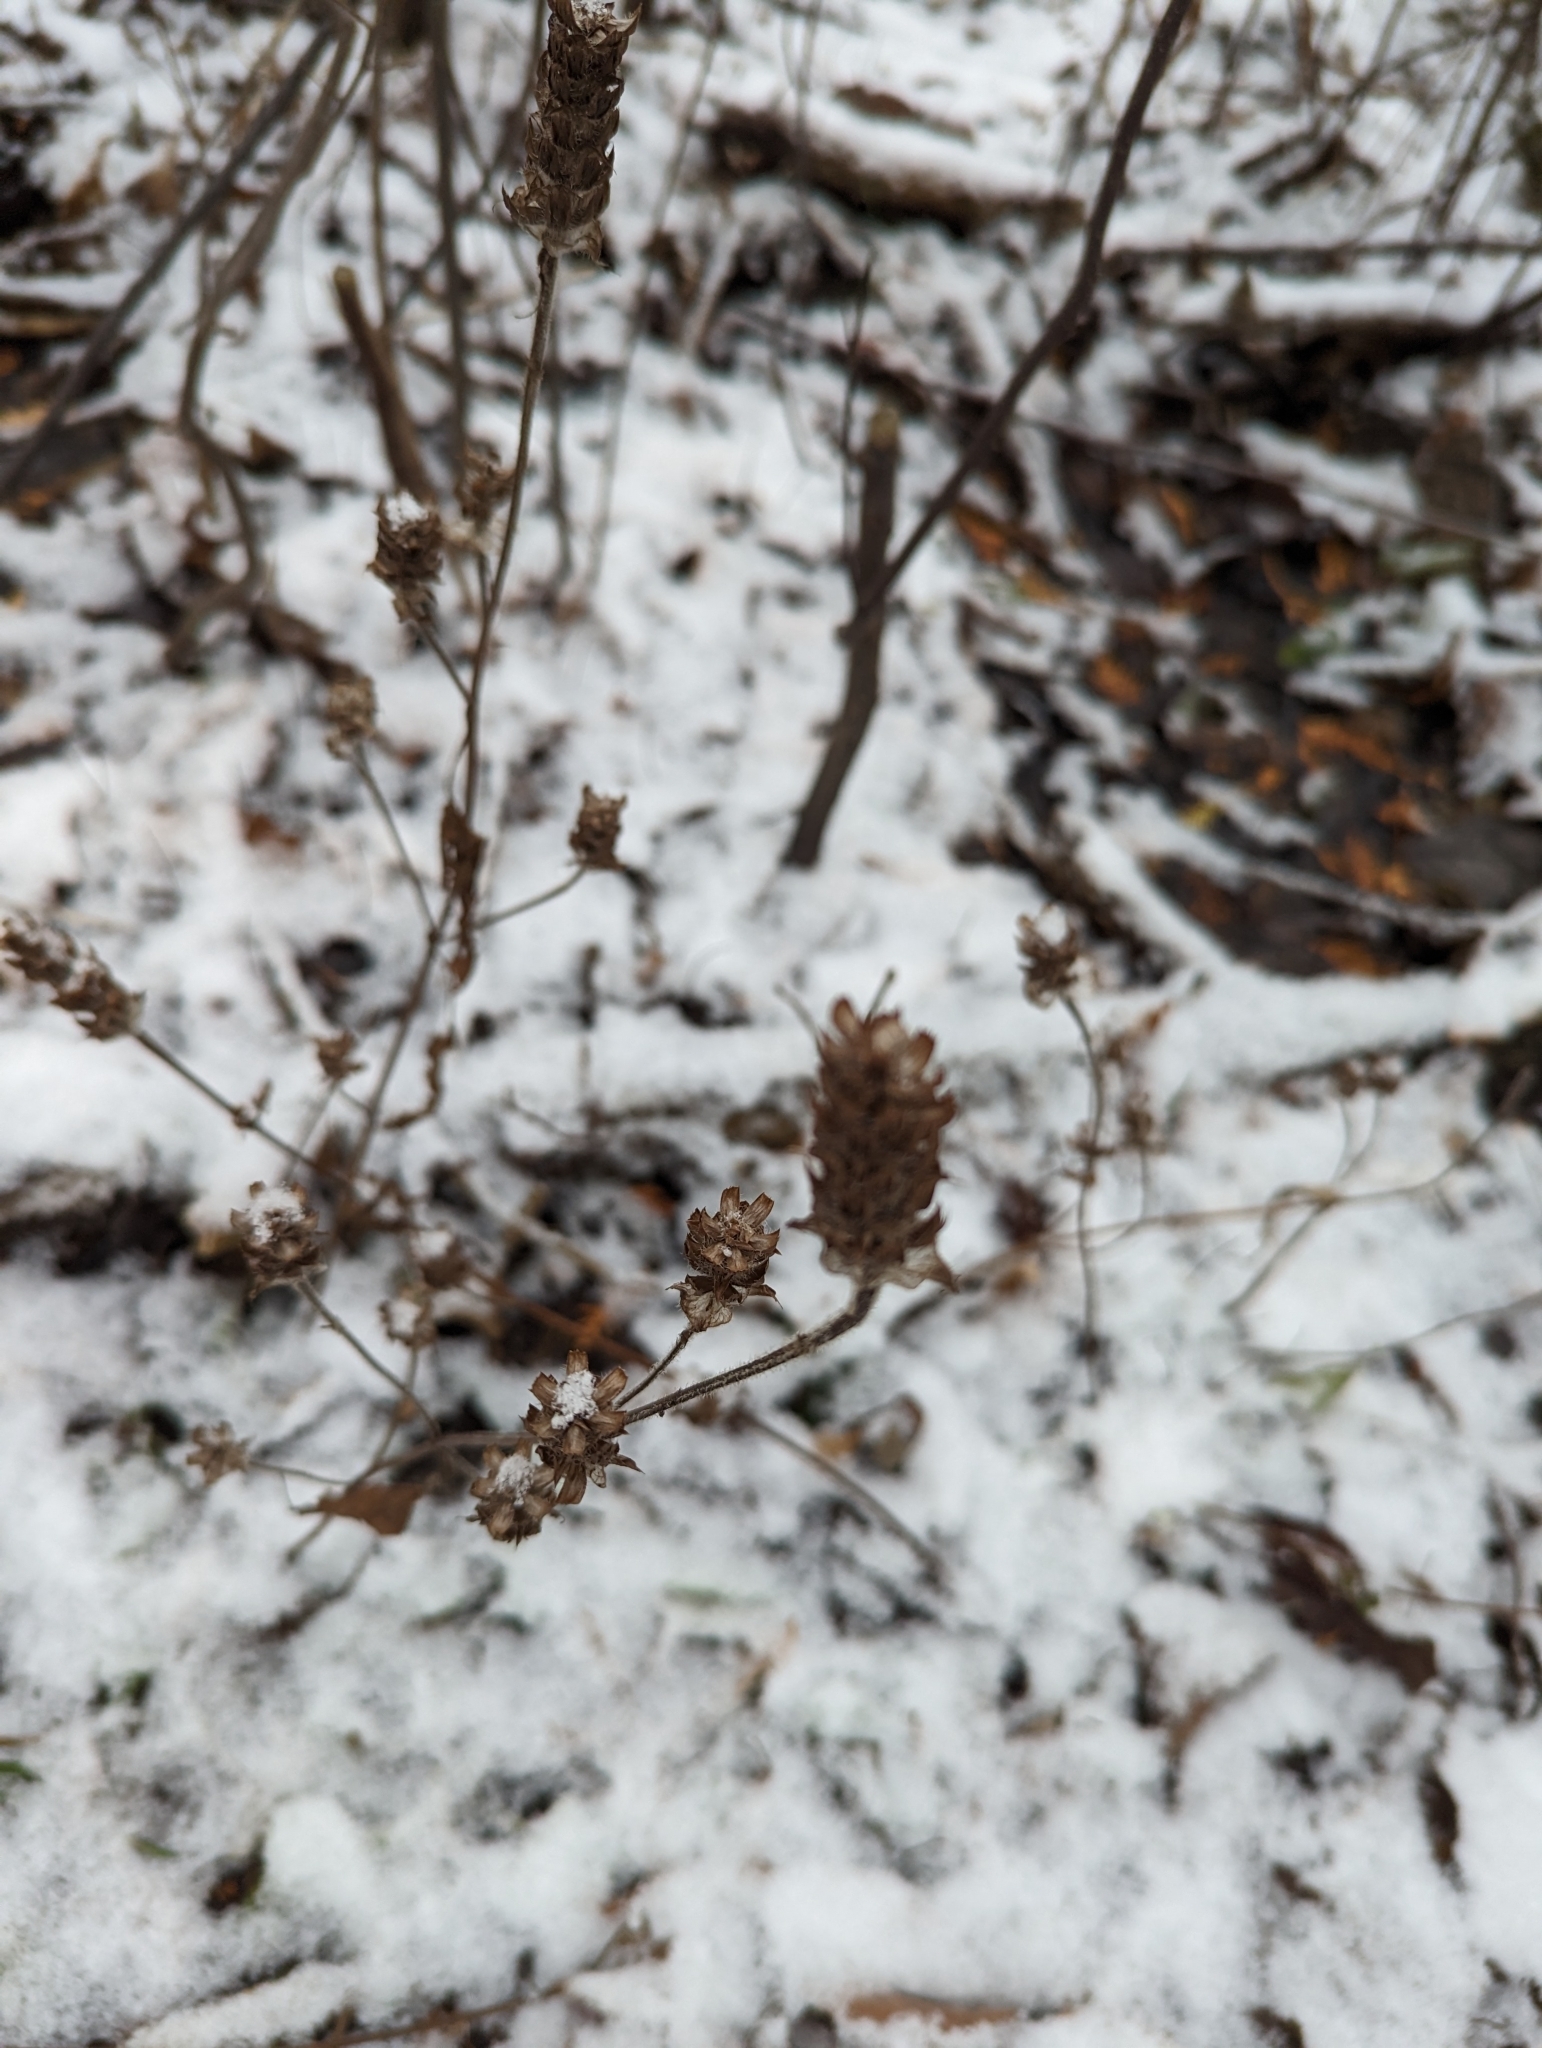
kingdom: Plantae
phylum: Tracheophyta
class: Magnoliopsida
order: Lamiales
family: Lamiaceae
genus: Prunella
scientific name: Prunella vulgaris
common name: Heal-all
